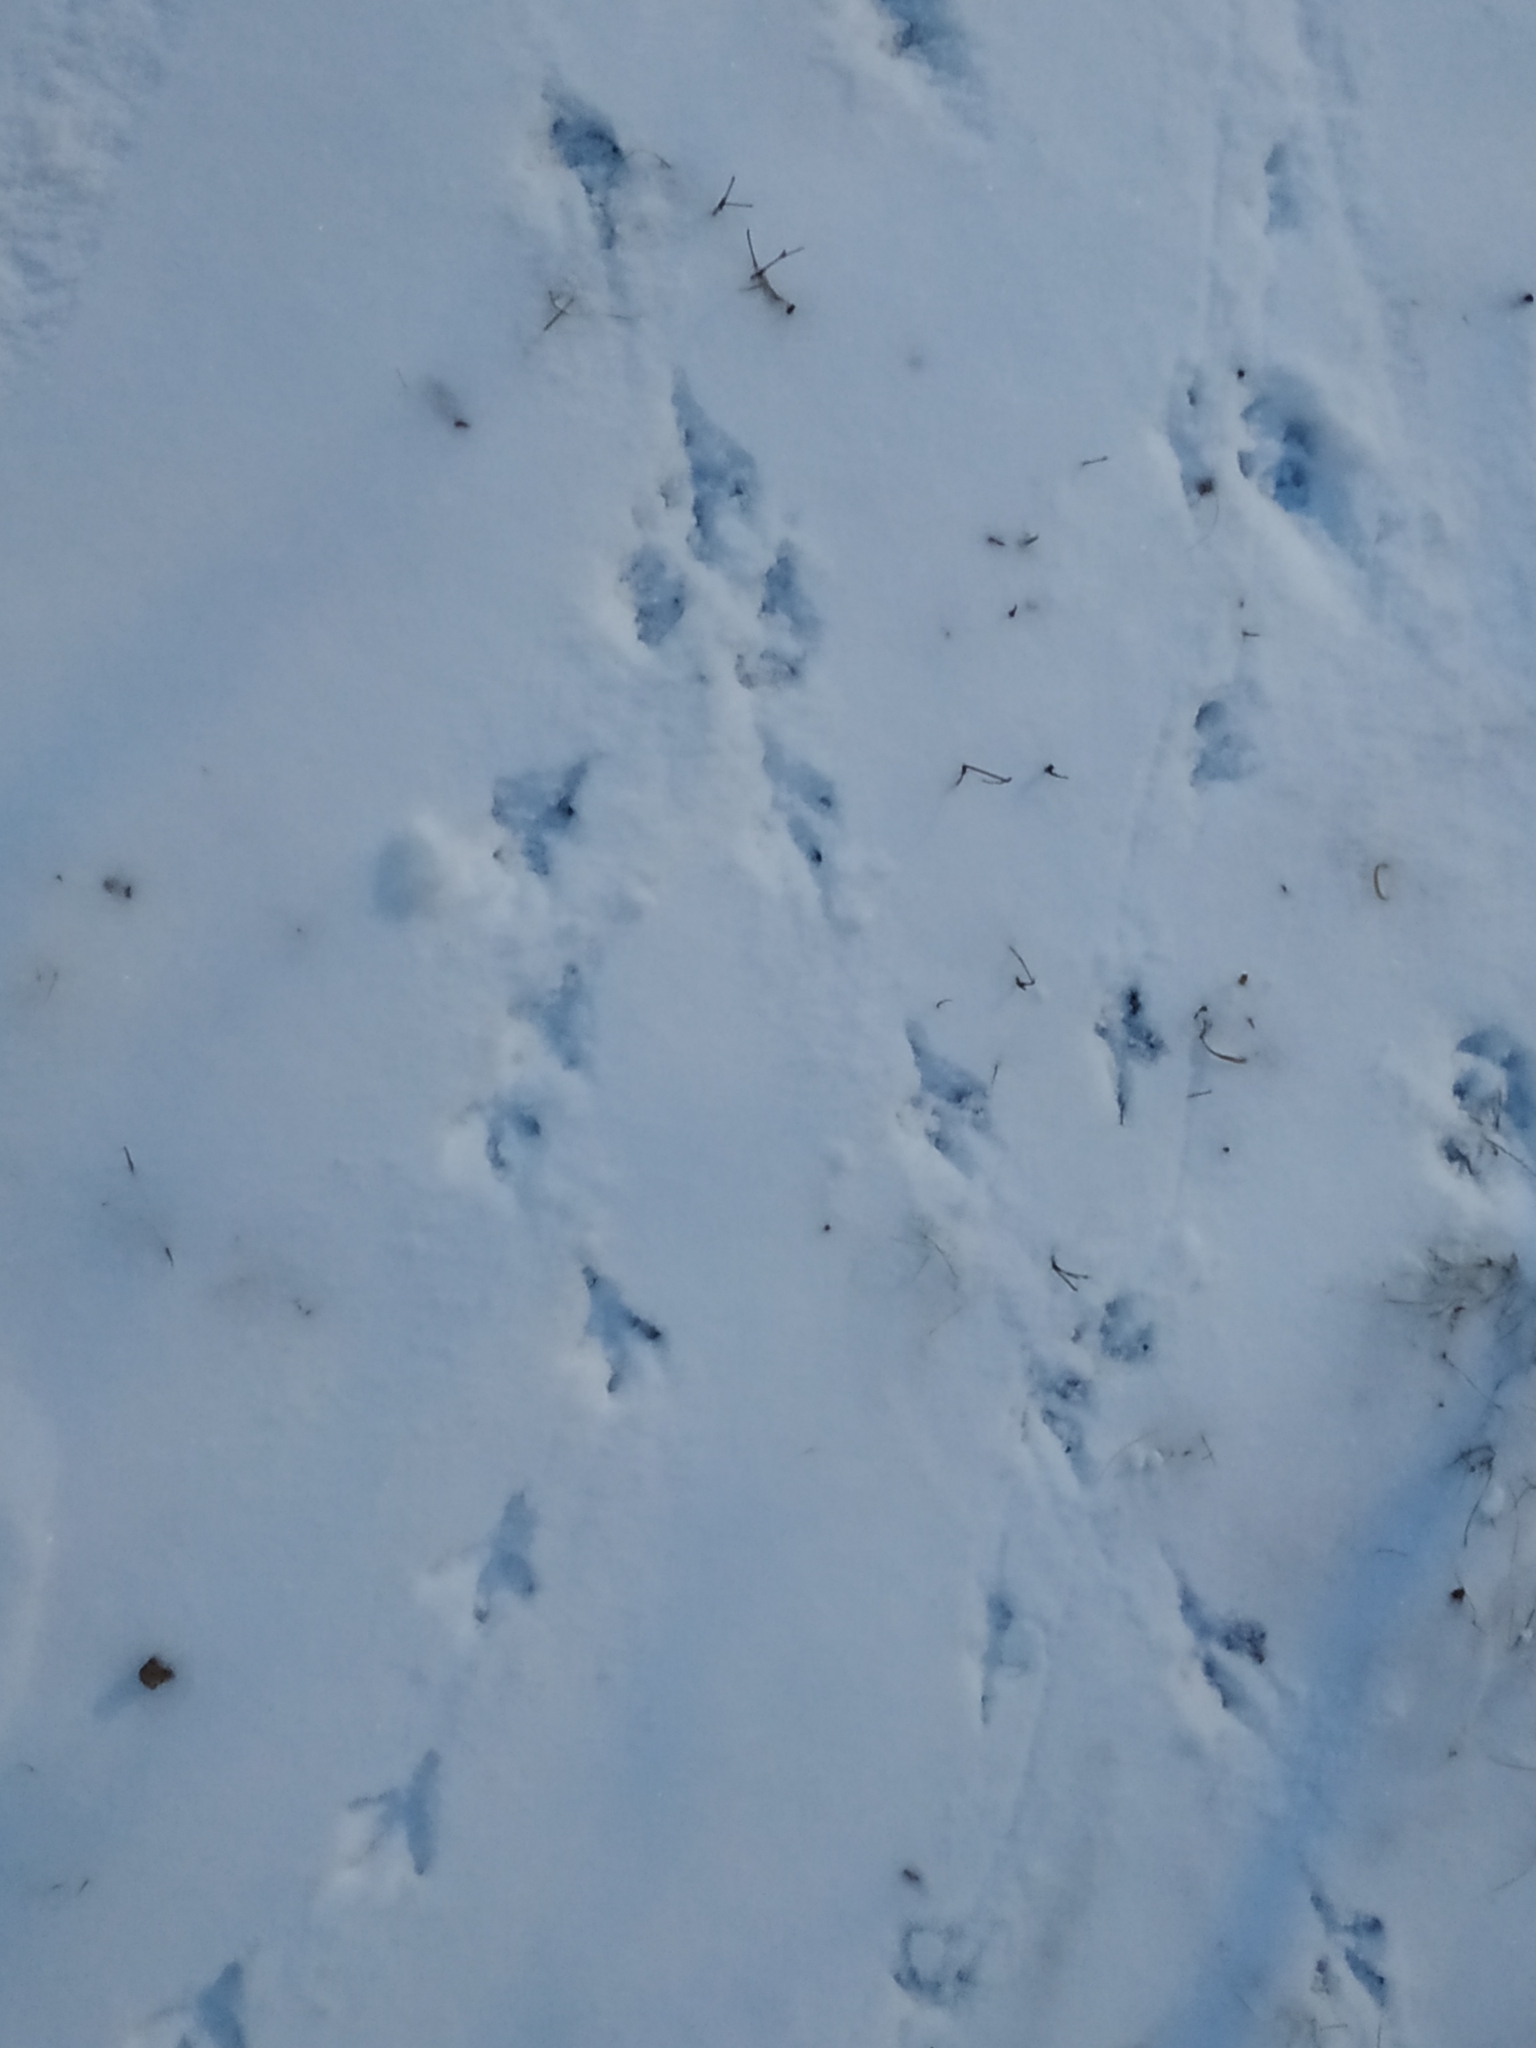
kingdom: Animalia
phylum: Chordata
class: Aves
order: Columbiformes
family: Columbidae
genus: Columba
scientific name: Columba livia
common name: Rock pigeon
